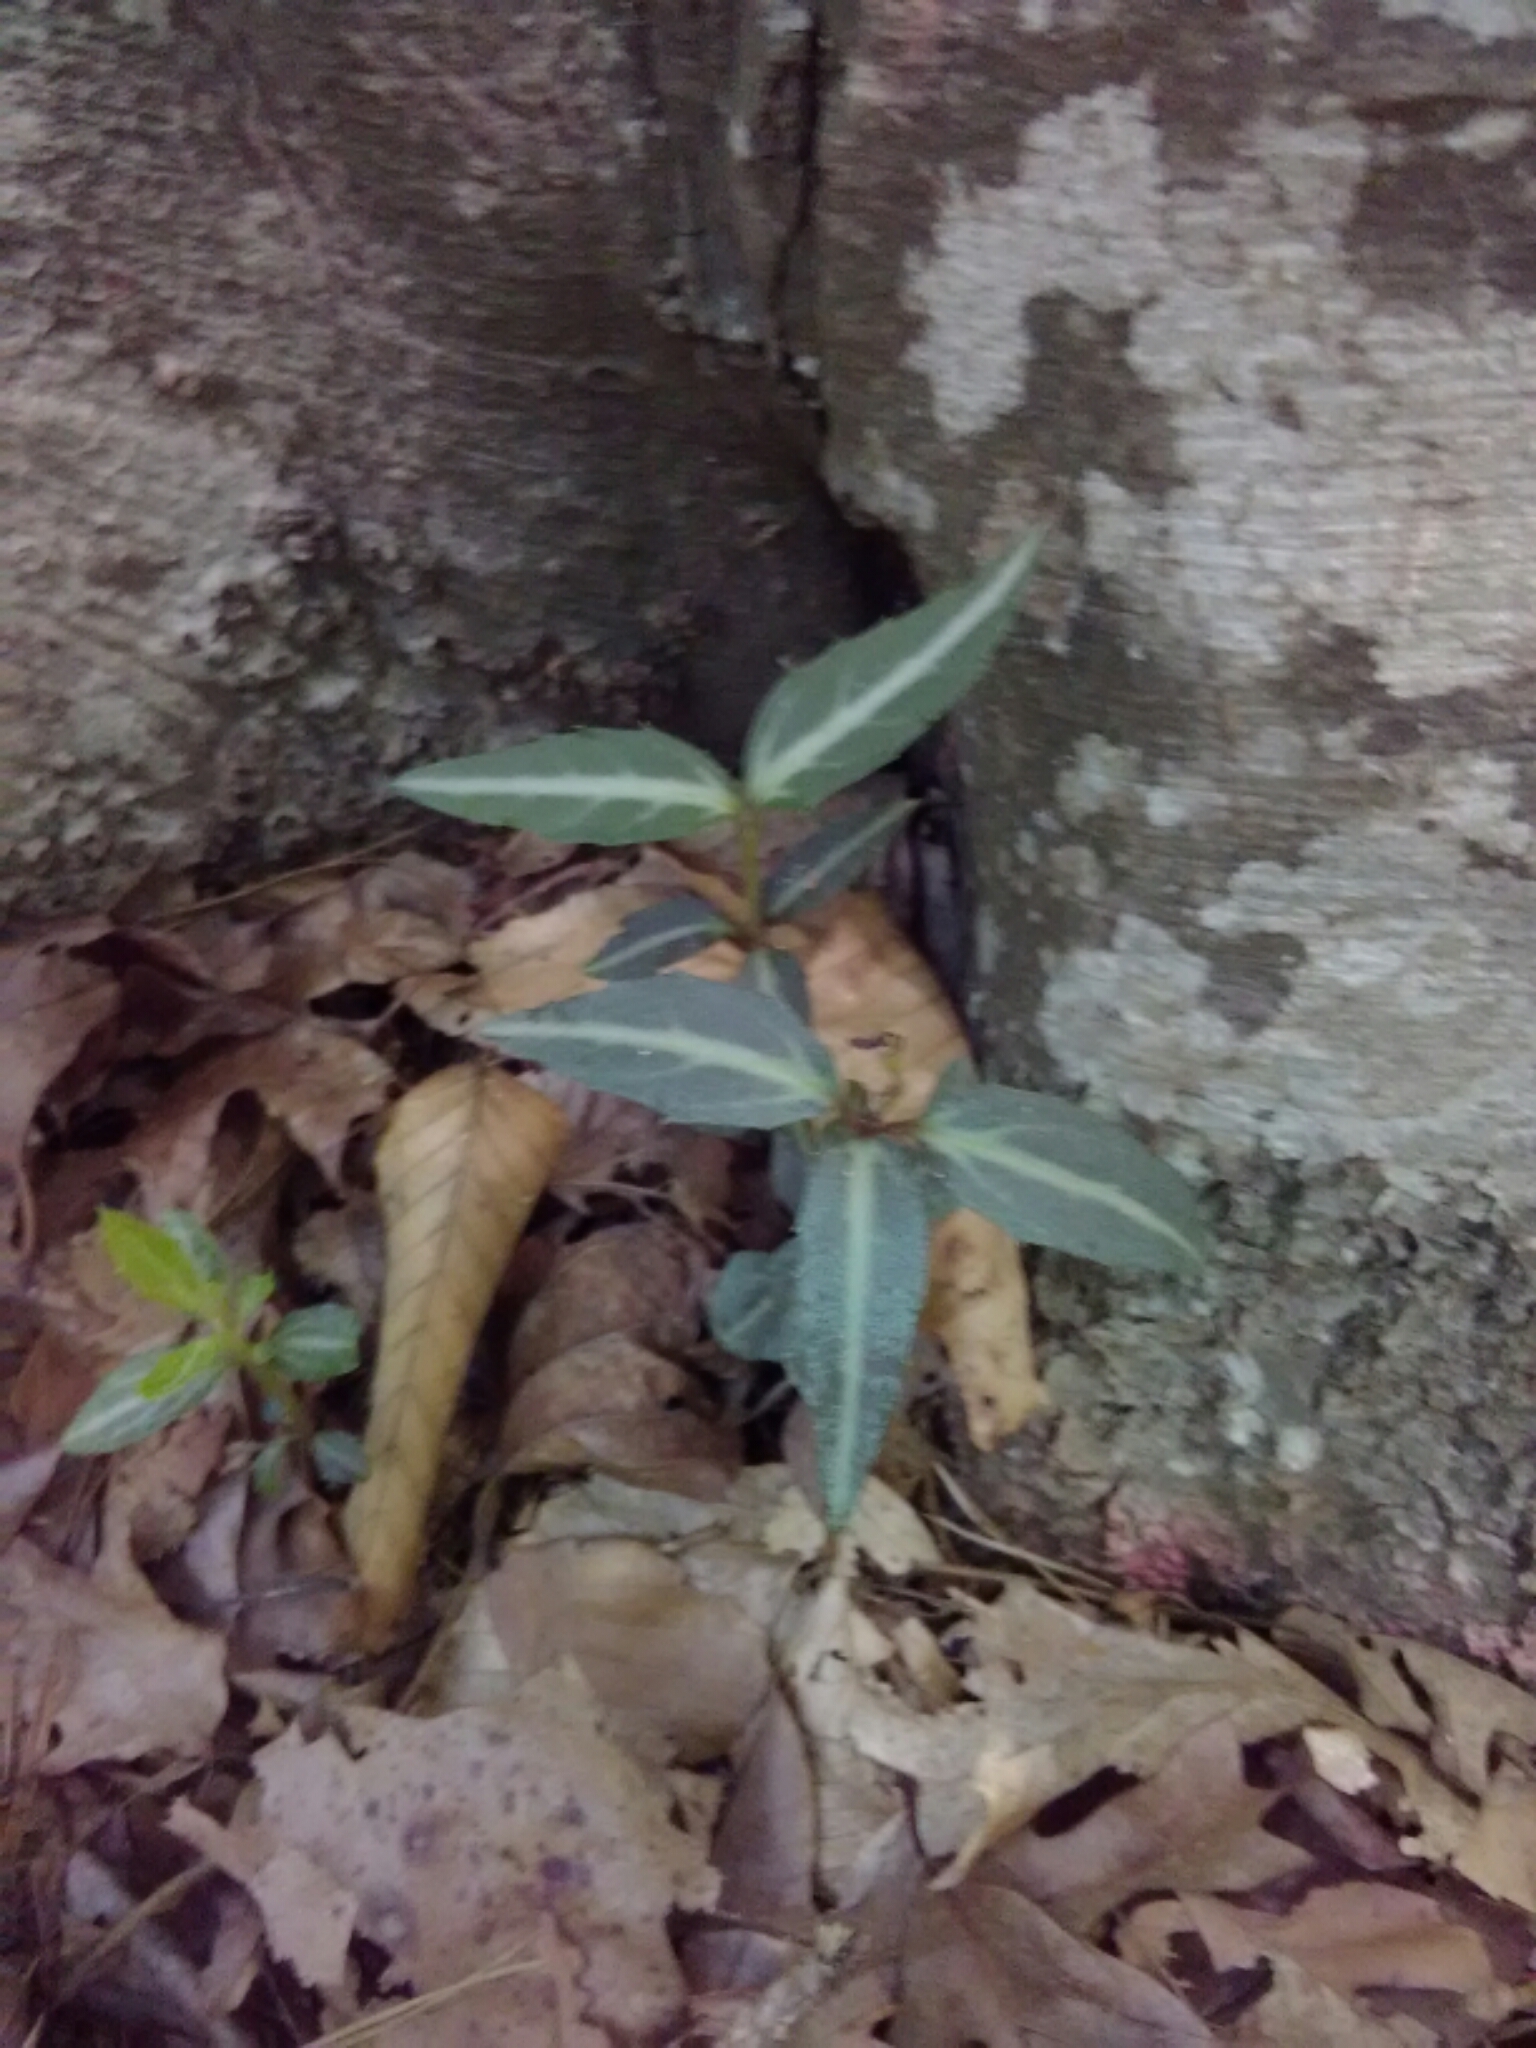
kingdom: Plantae
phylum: Tracheophyta
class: Magnoliopsida
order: Ericales
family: Ericaceae
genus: Chimaphila
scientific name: Chimaphila maculata
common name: Spotted pipsissewa
